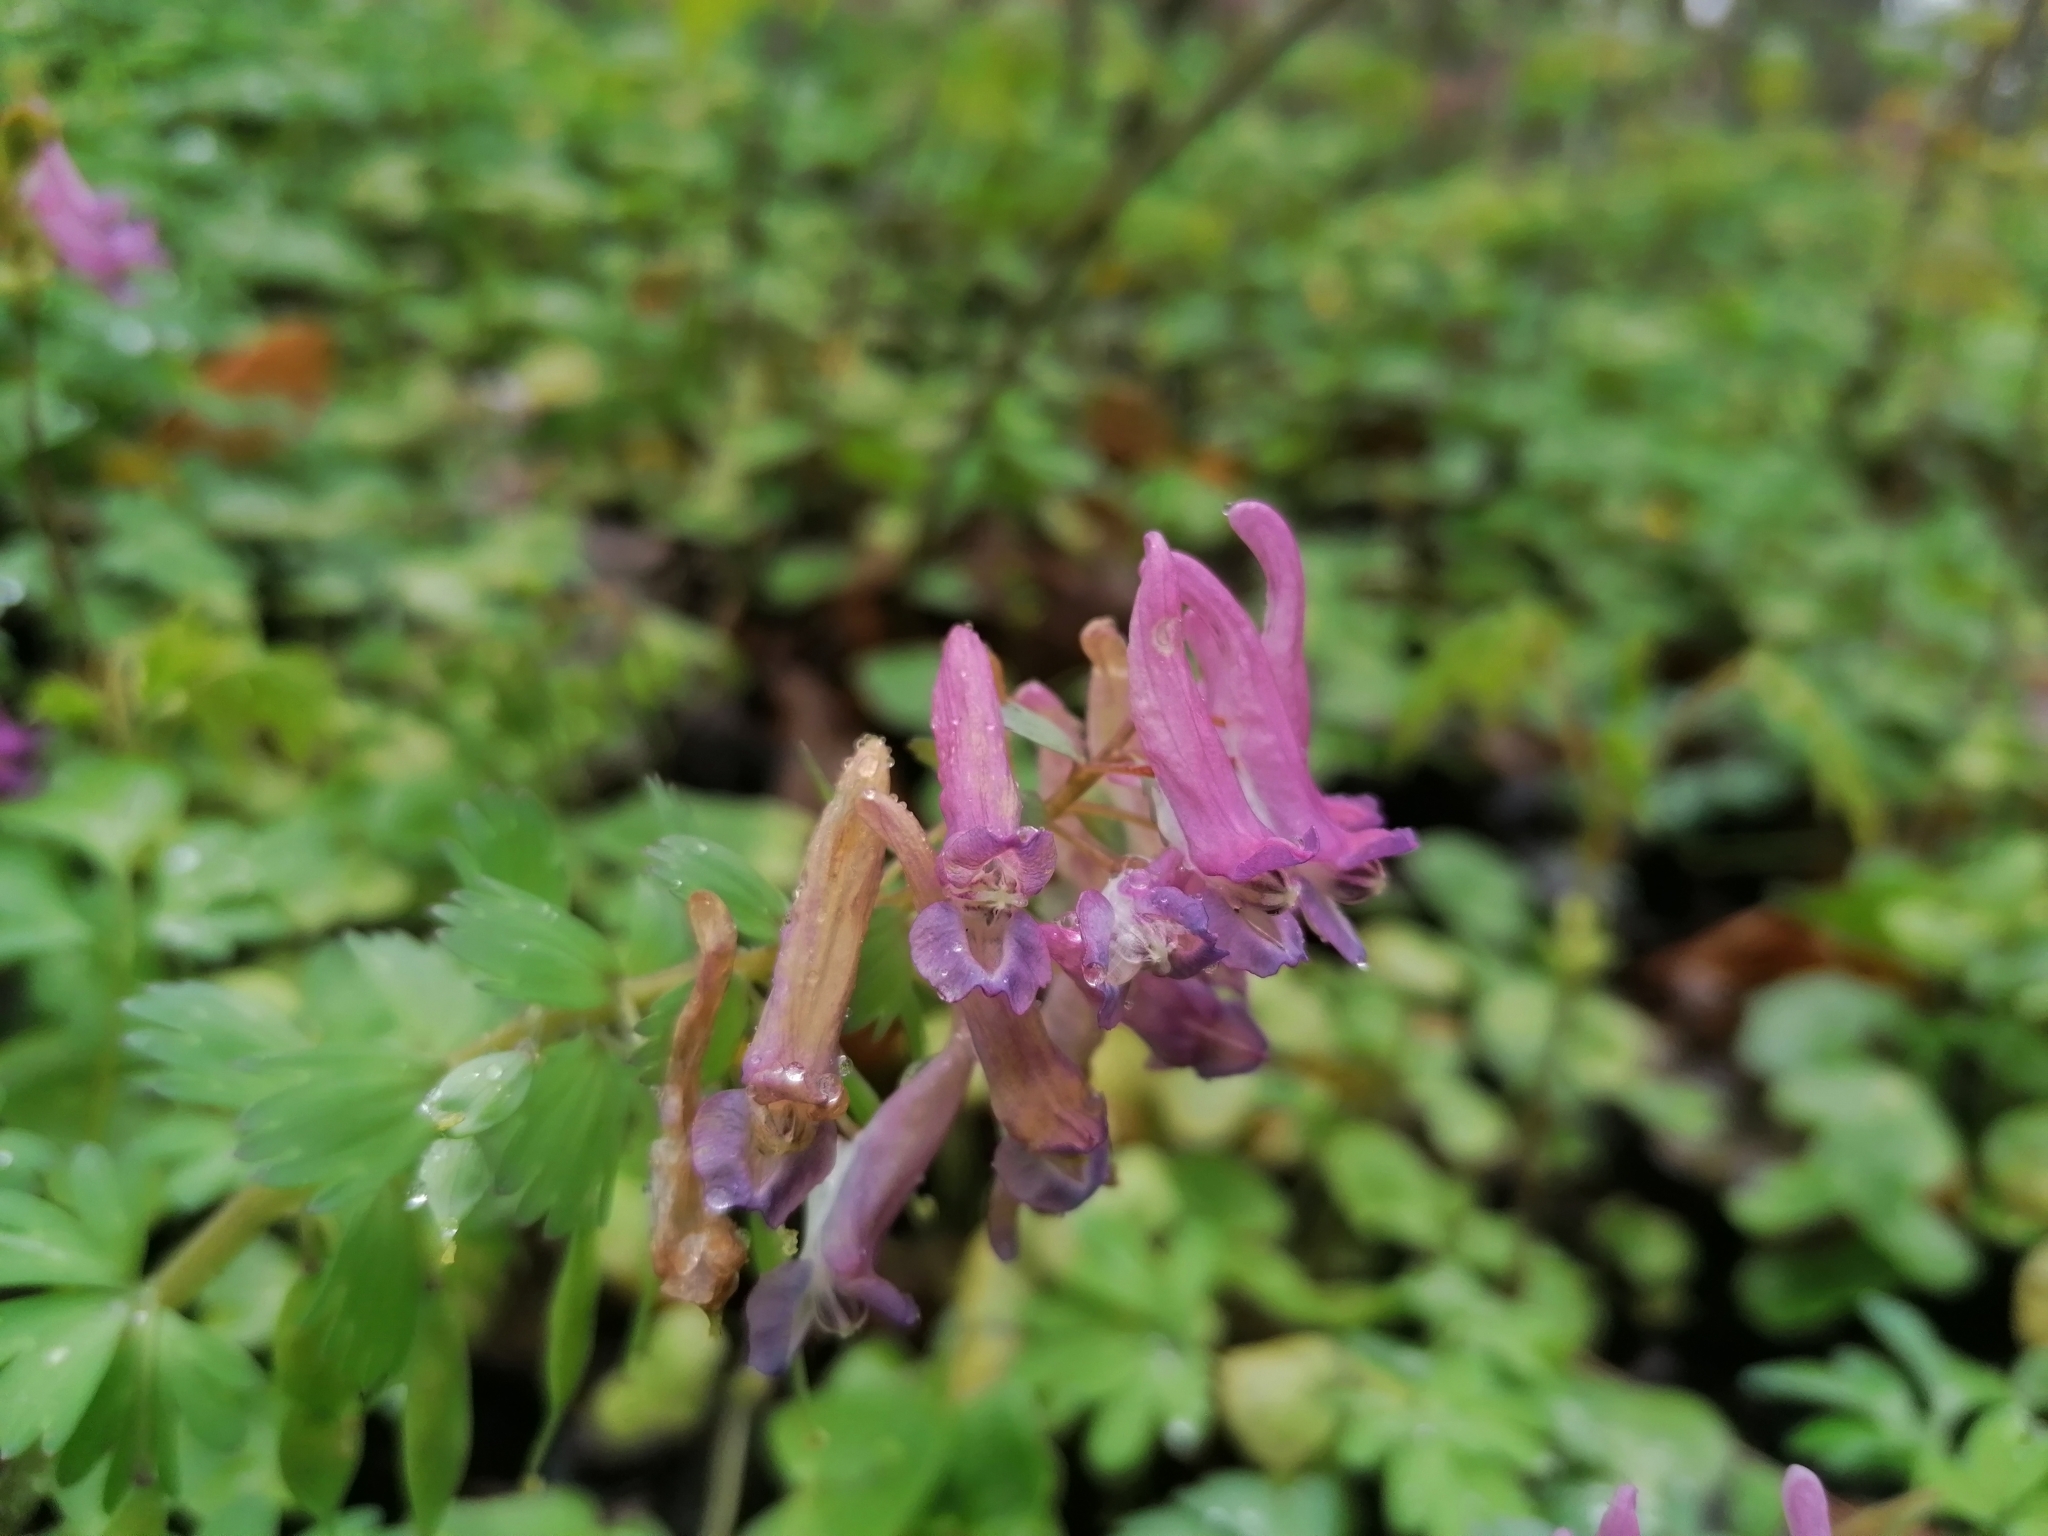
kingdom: Plantae
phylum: Tracheophyta
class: Magnoliopsida
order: Ranunculales
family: Papaveraceae
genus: Corydalis
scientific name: Corydalis solida
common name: Bird-in-a-bush
